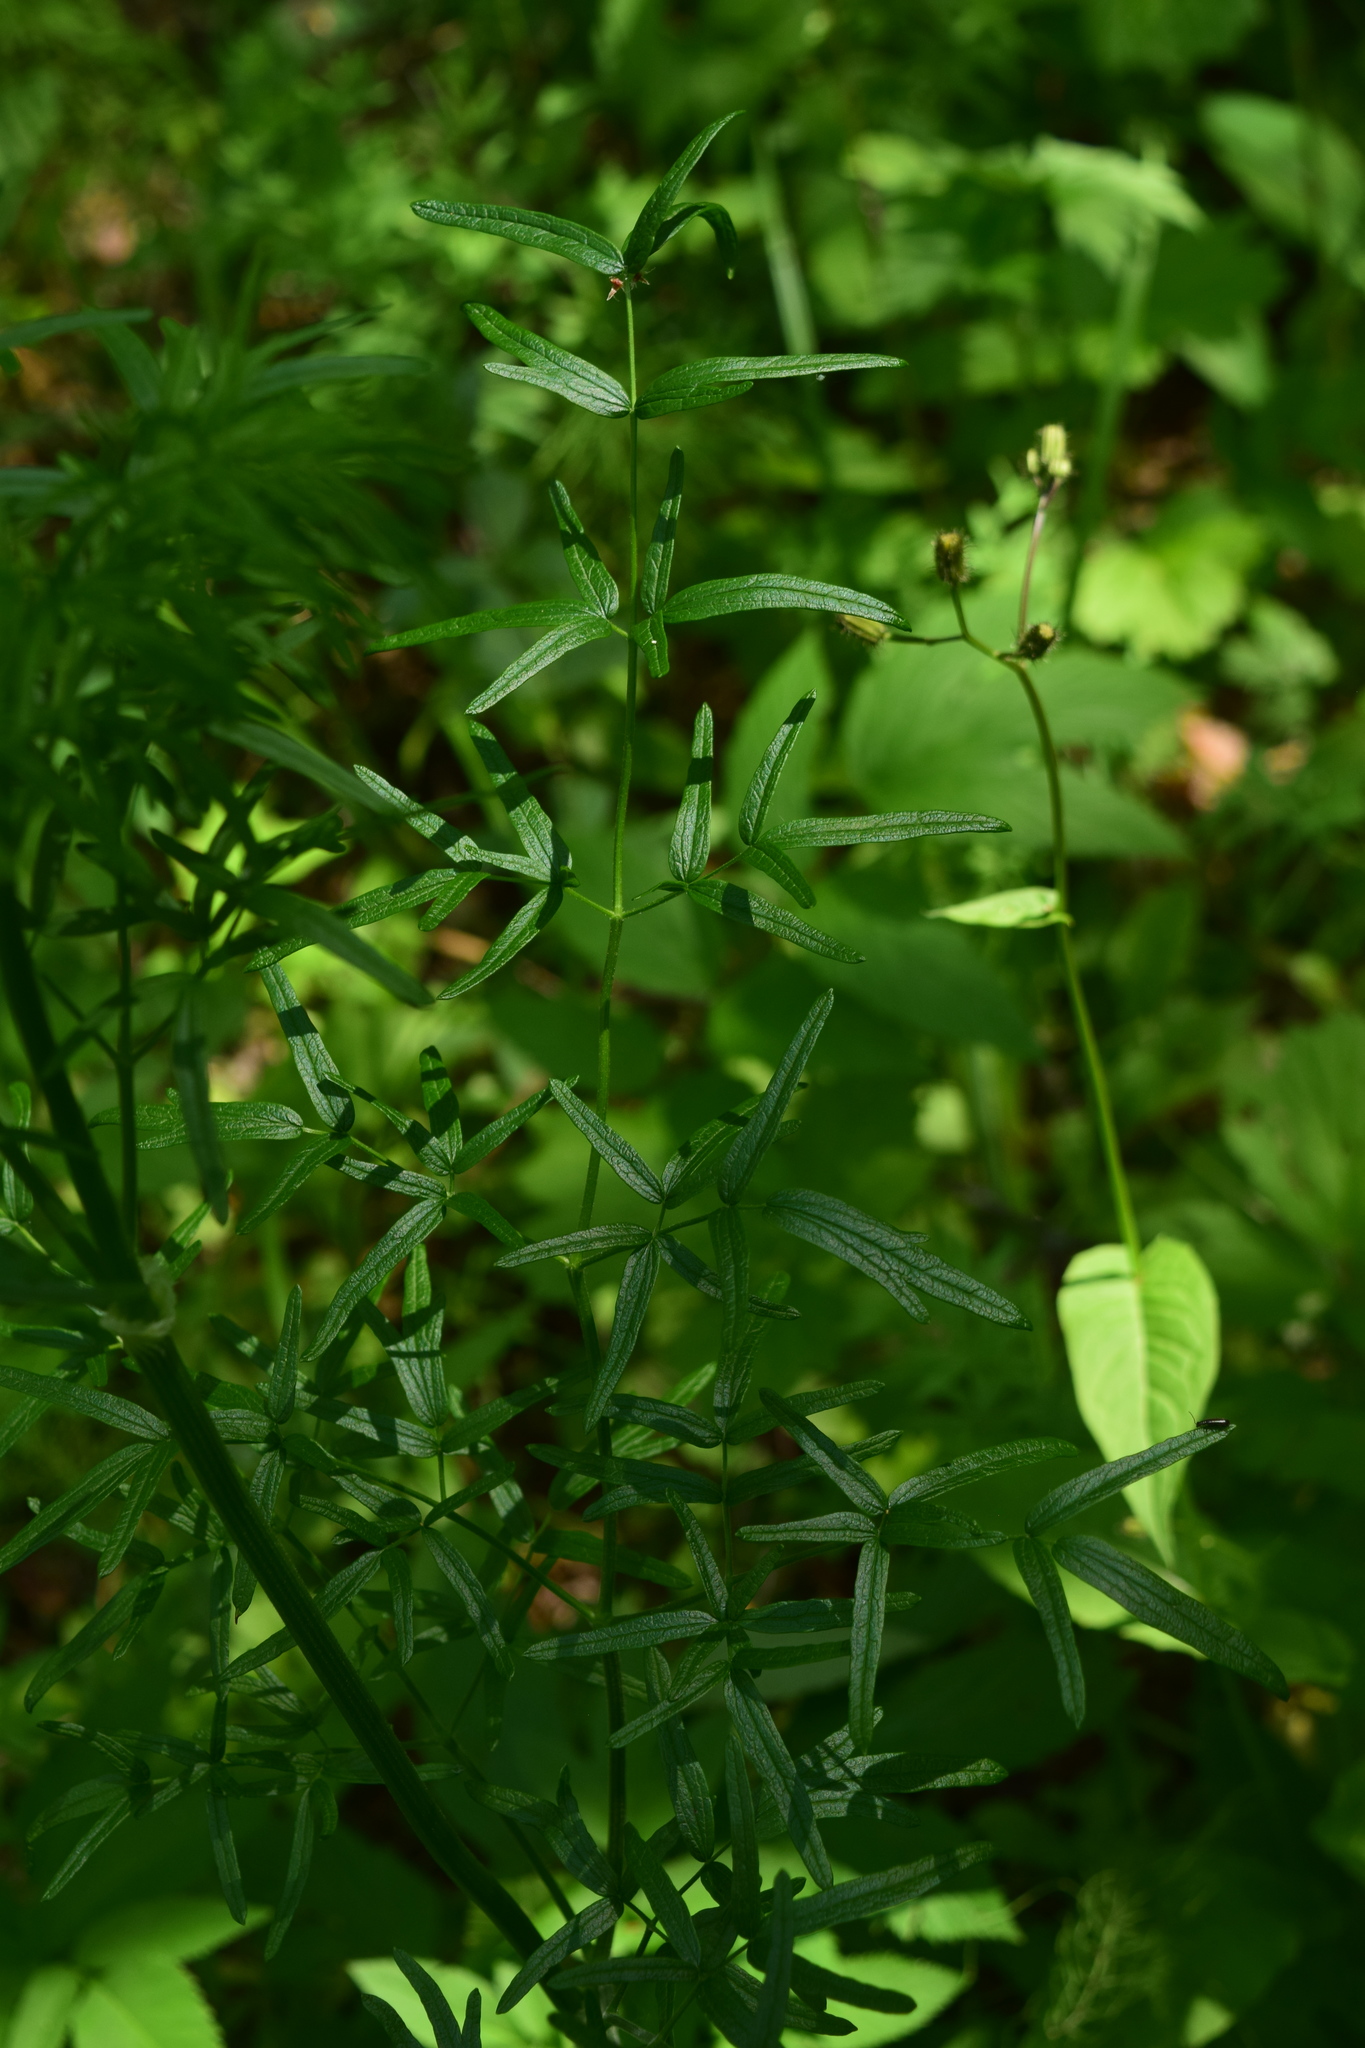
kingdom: Plantae
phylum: Tracheophyta
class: Magnoliopsida
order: Ranunculales
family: Ranunculaceae
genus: Thalictrum
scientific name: Thalictrum lucidum
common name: Shining meadow-rue
